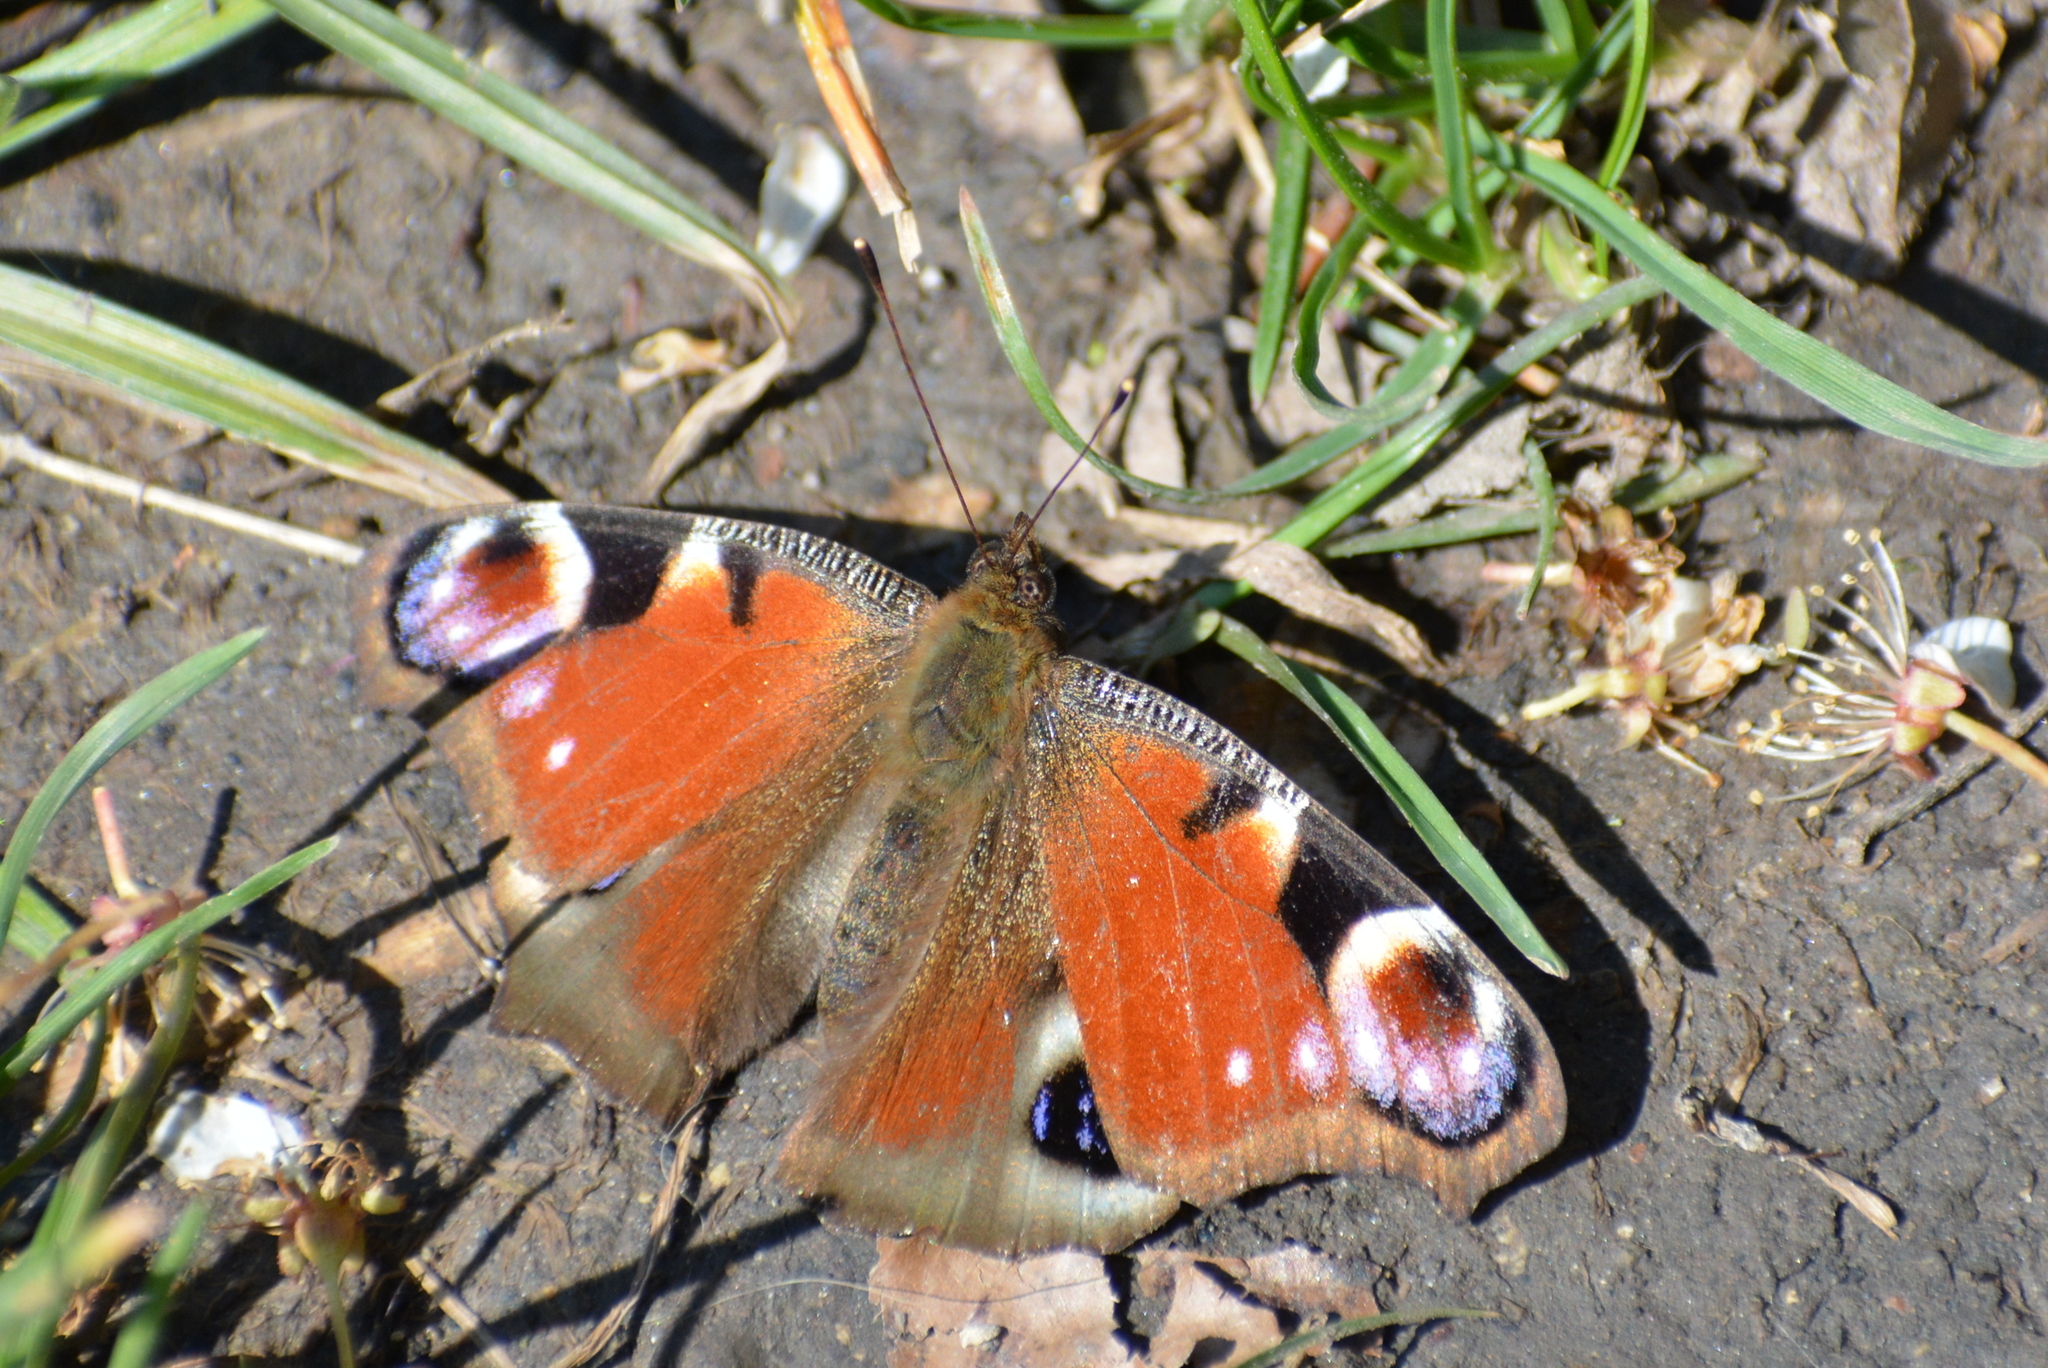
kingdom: Animalia
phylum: Arthropoda
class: Insecta
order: Lepidoptera
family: Nymphalidae
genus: Aglais
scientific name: Aglais io
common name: Peacock
